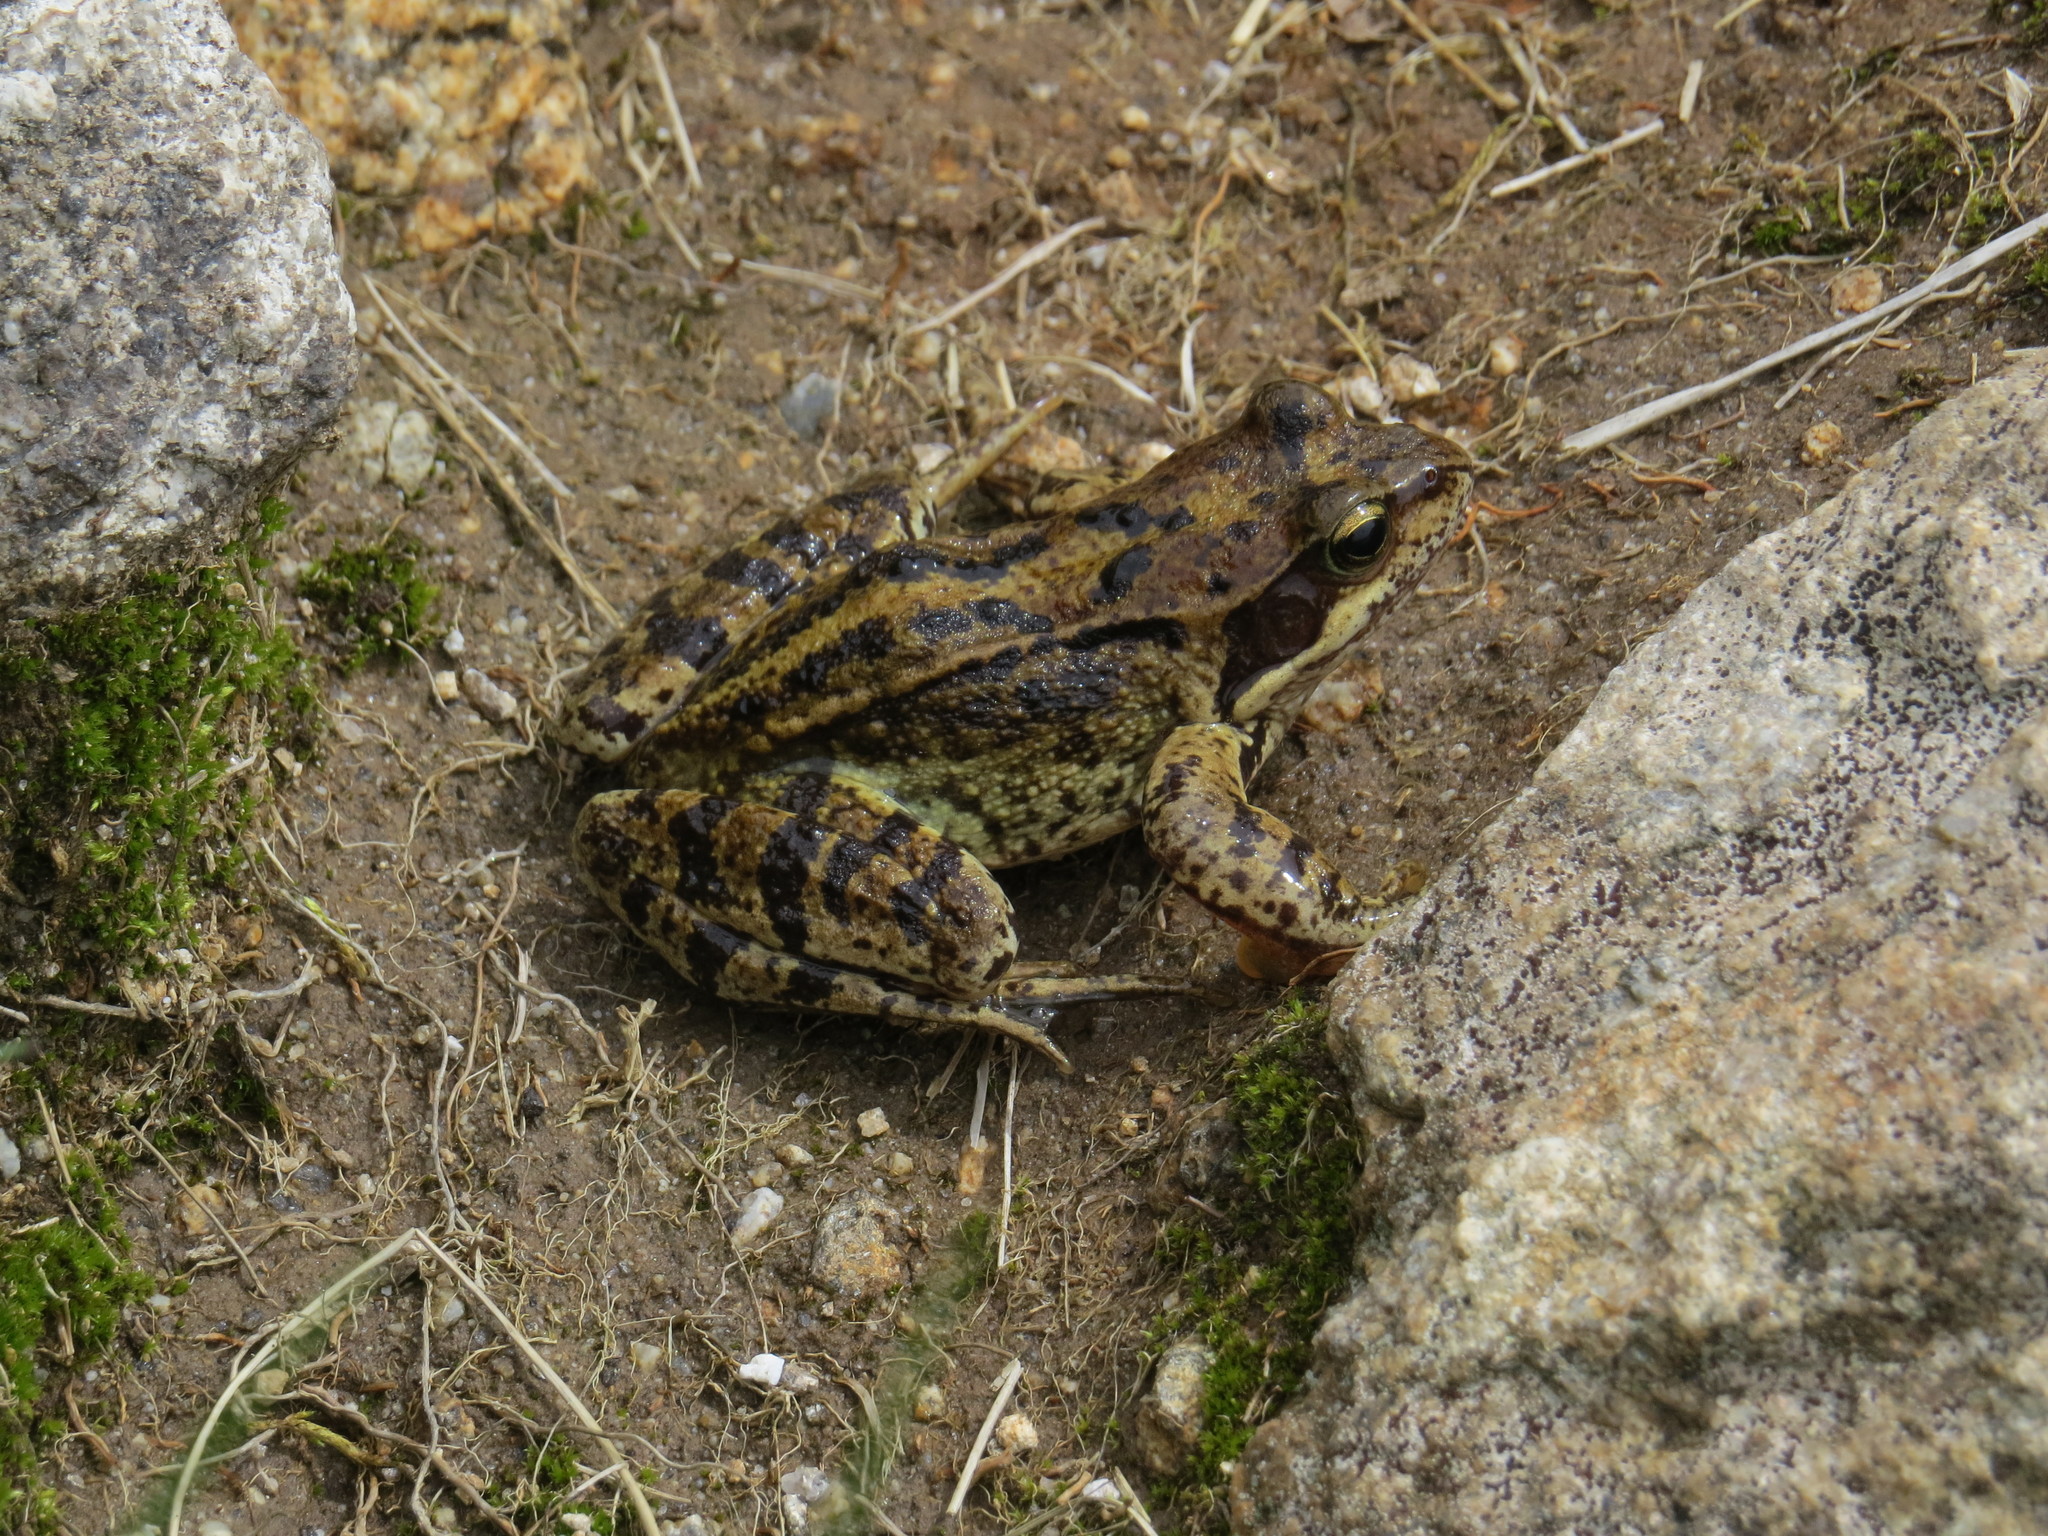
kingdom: Animalia
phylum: Chordata
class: Amphibia
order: Anura
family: Ranidae
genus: Rana
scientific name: Rana temporaria
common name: Common frog
